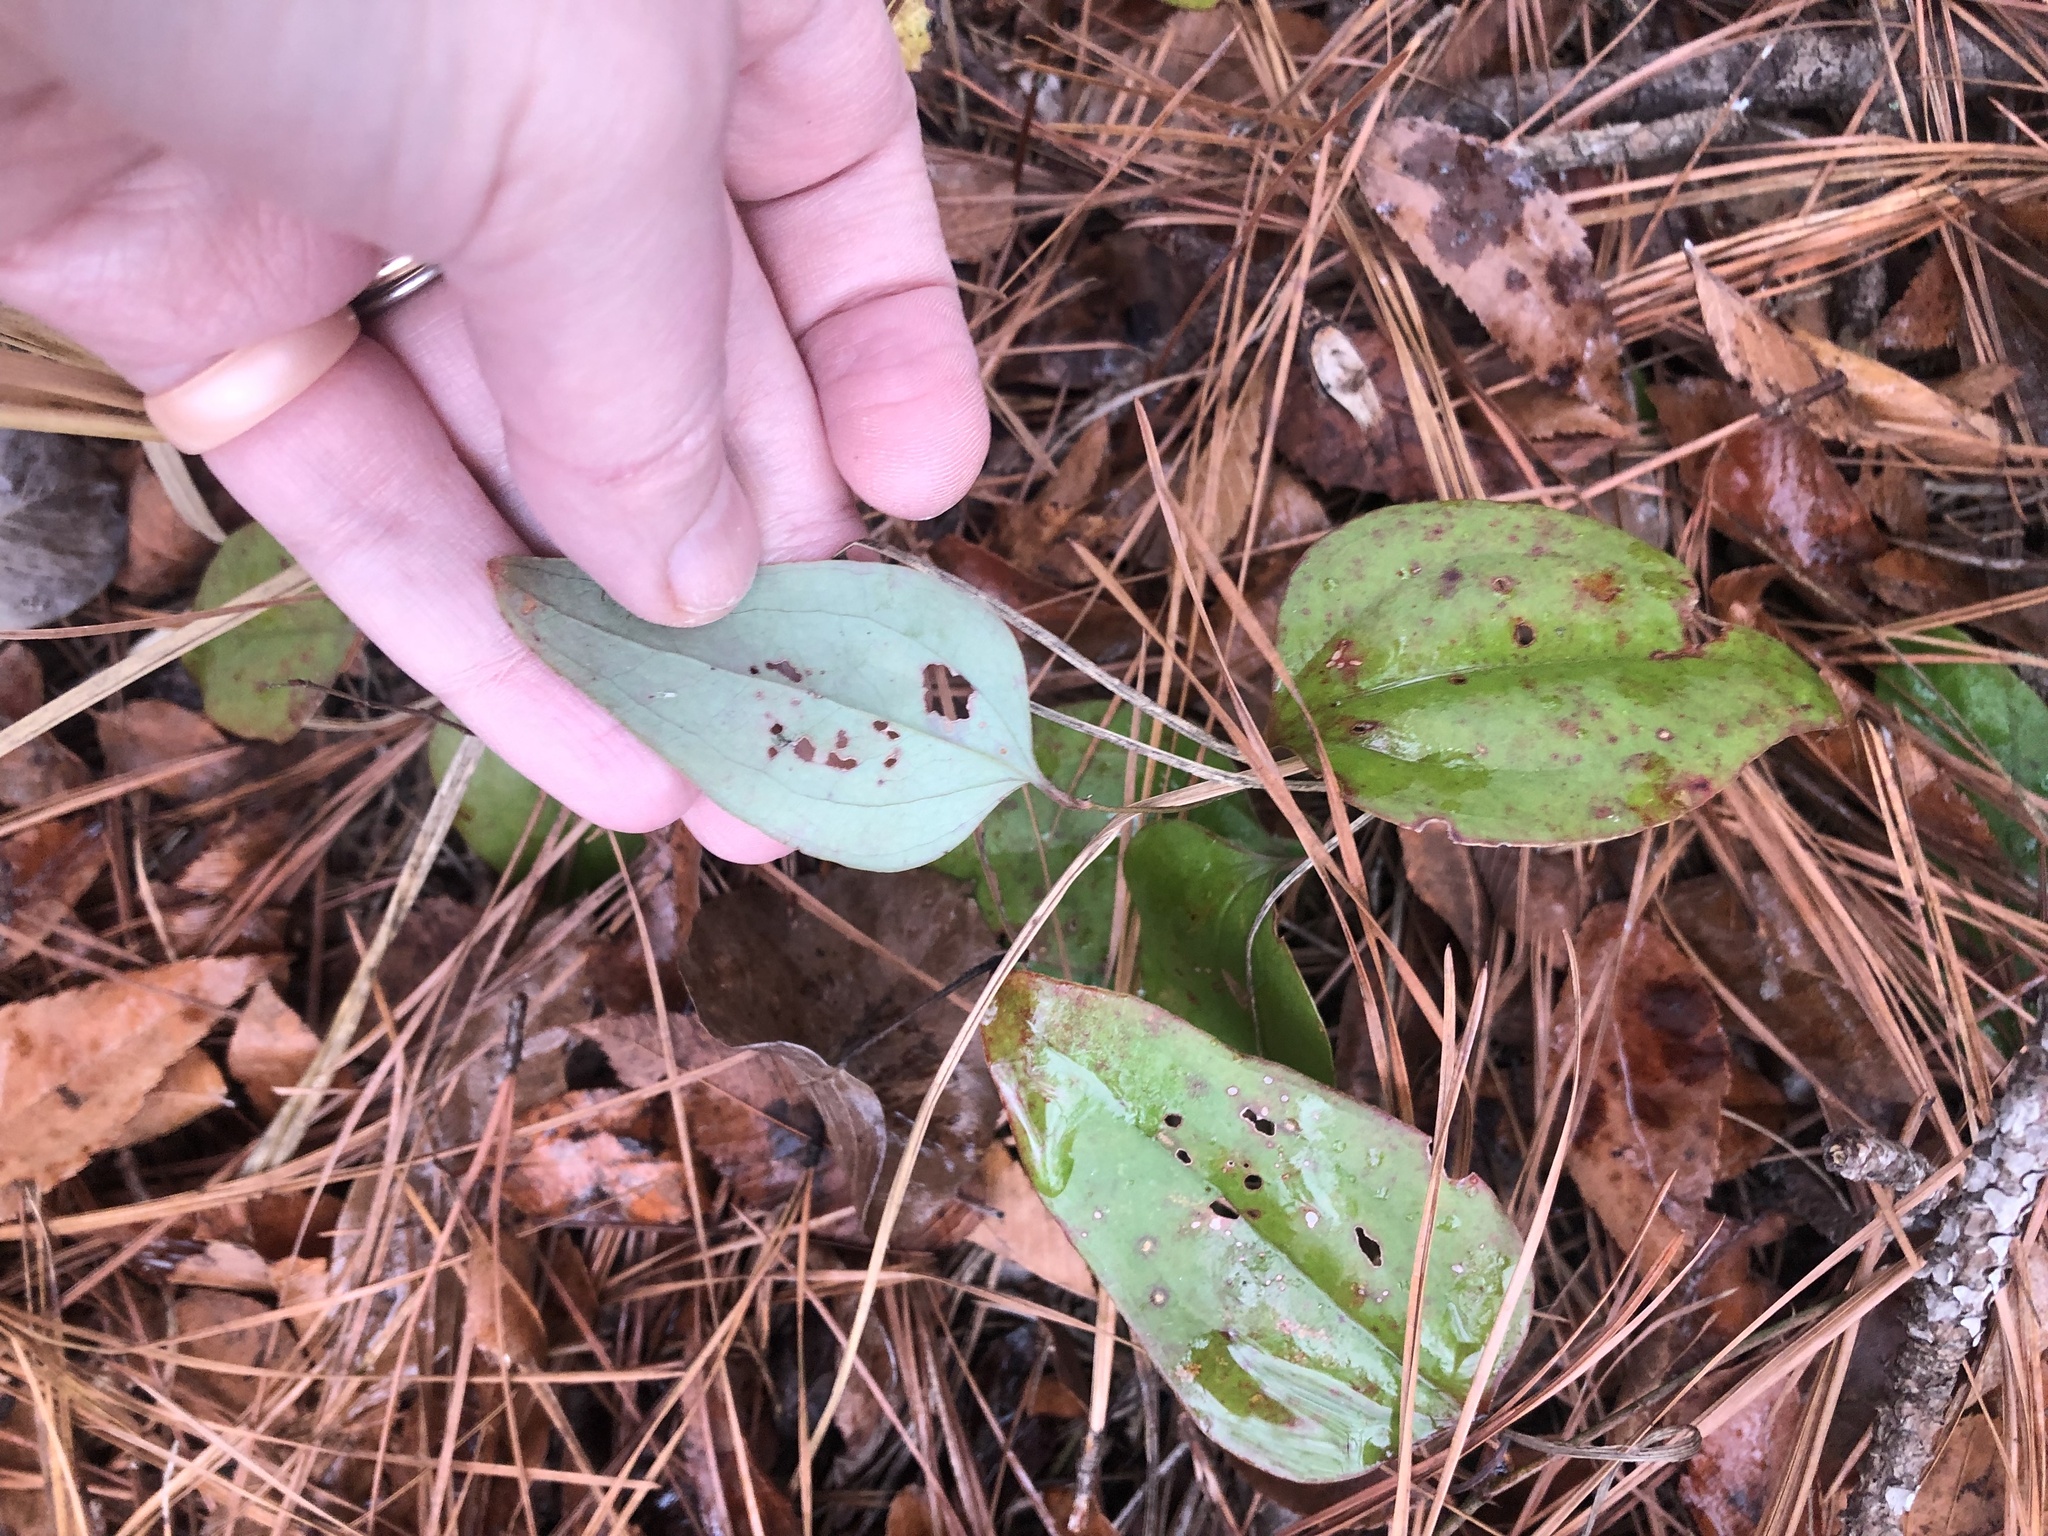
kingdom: Plantae
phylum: Tracheophyta
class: Liliopsida
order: Liliales
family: Smilacaceae
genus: Smilax
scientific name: Smilax glauca
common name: Cat greenbrier
